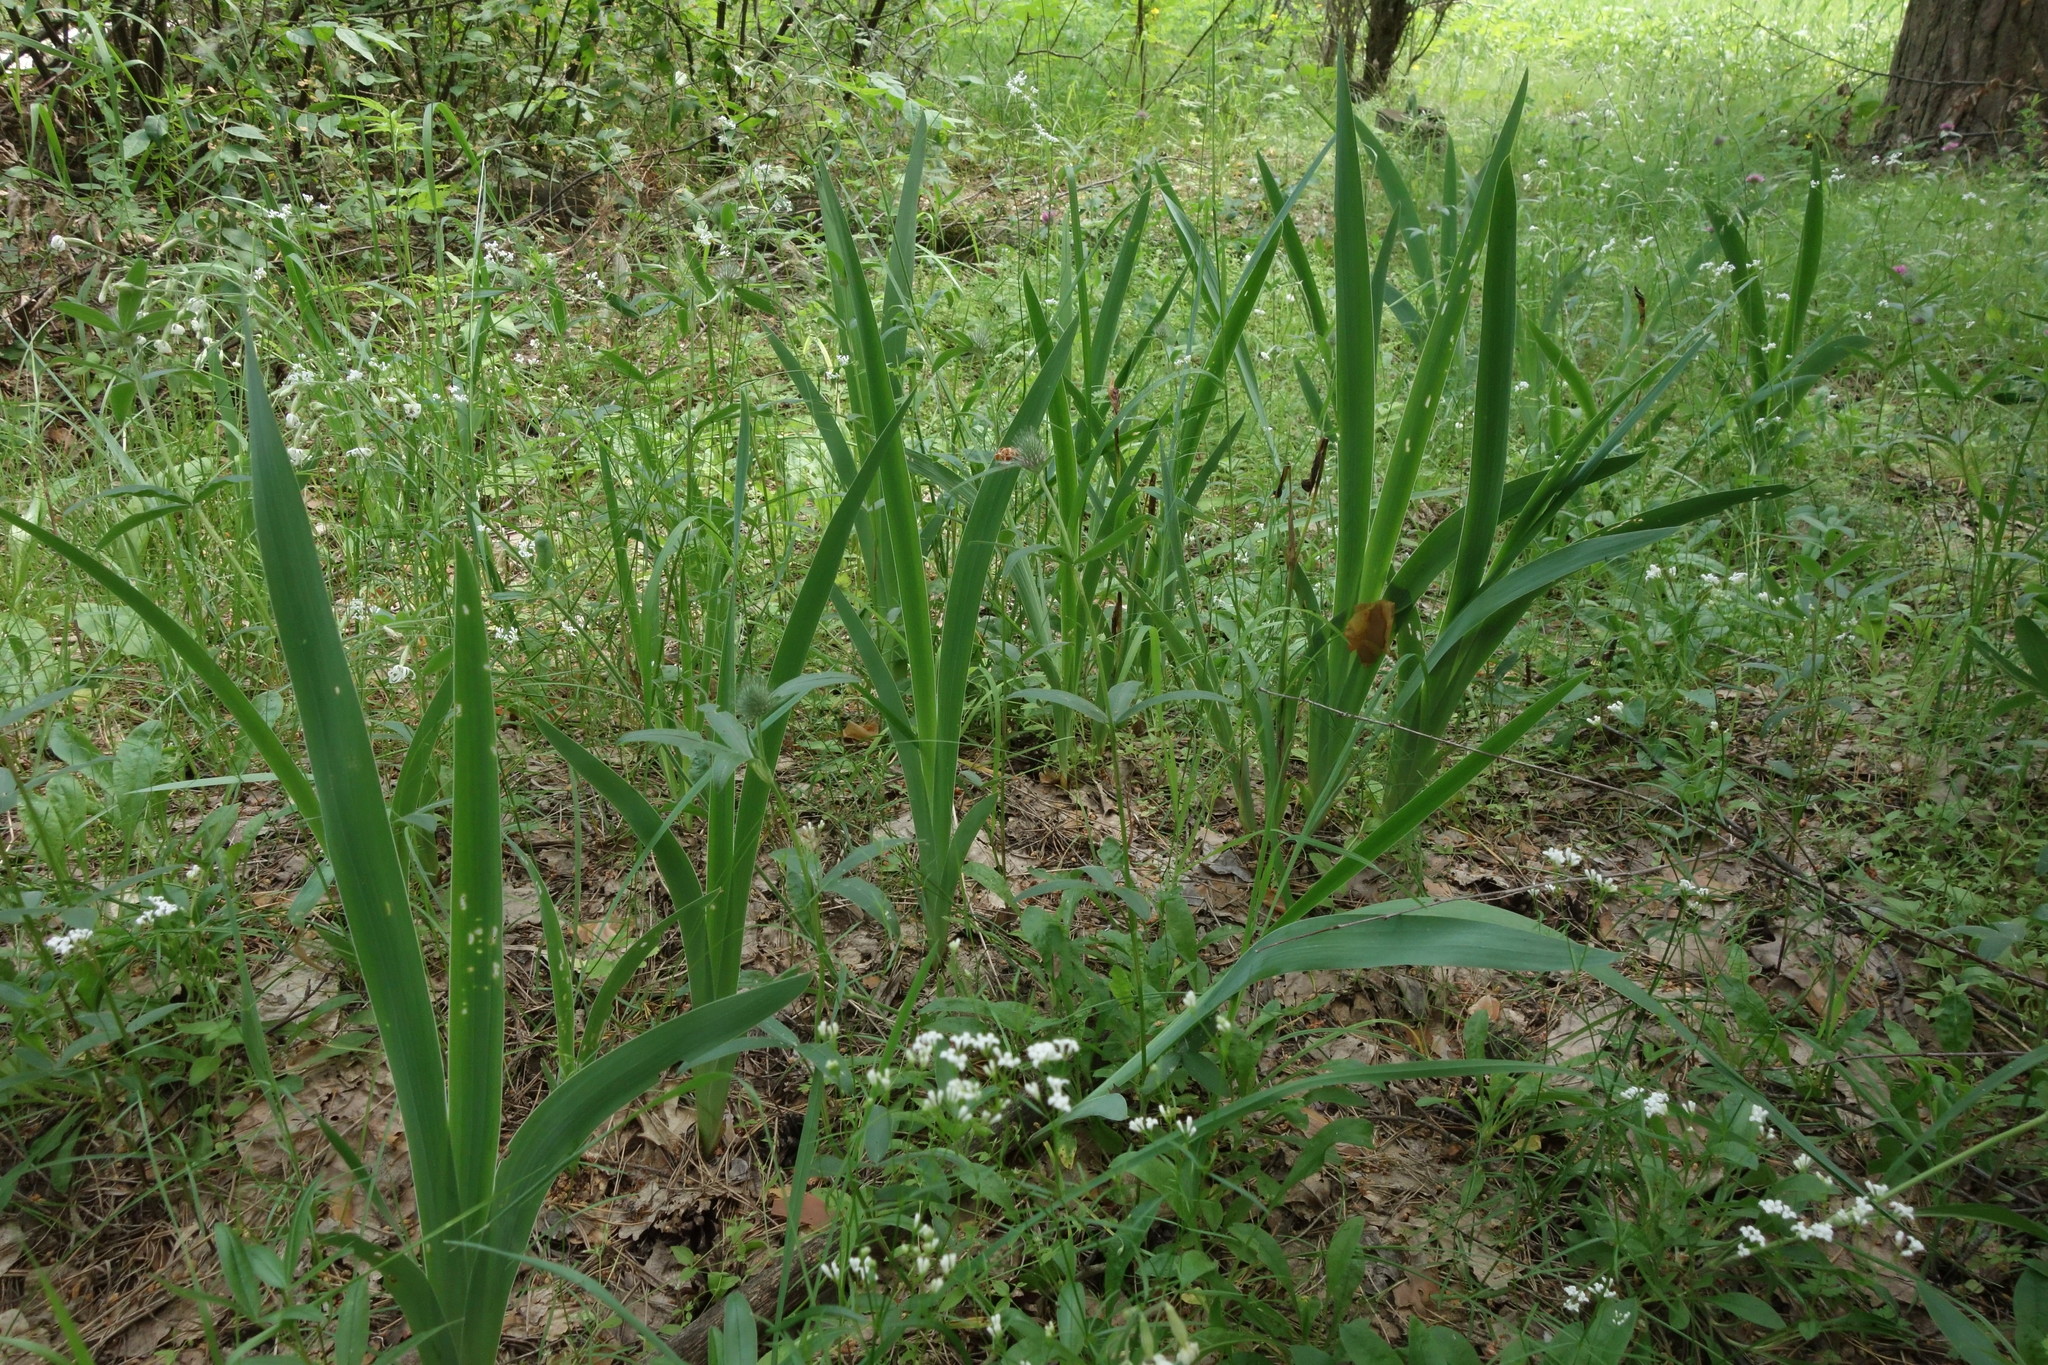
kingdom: Plantae
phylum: Tracheophyta
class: Liliopsida
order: Asparagales
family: Iridaceae
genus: Iris
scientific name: Iris aphylla
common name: Stool iris
